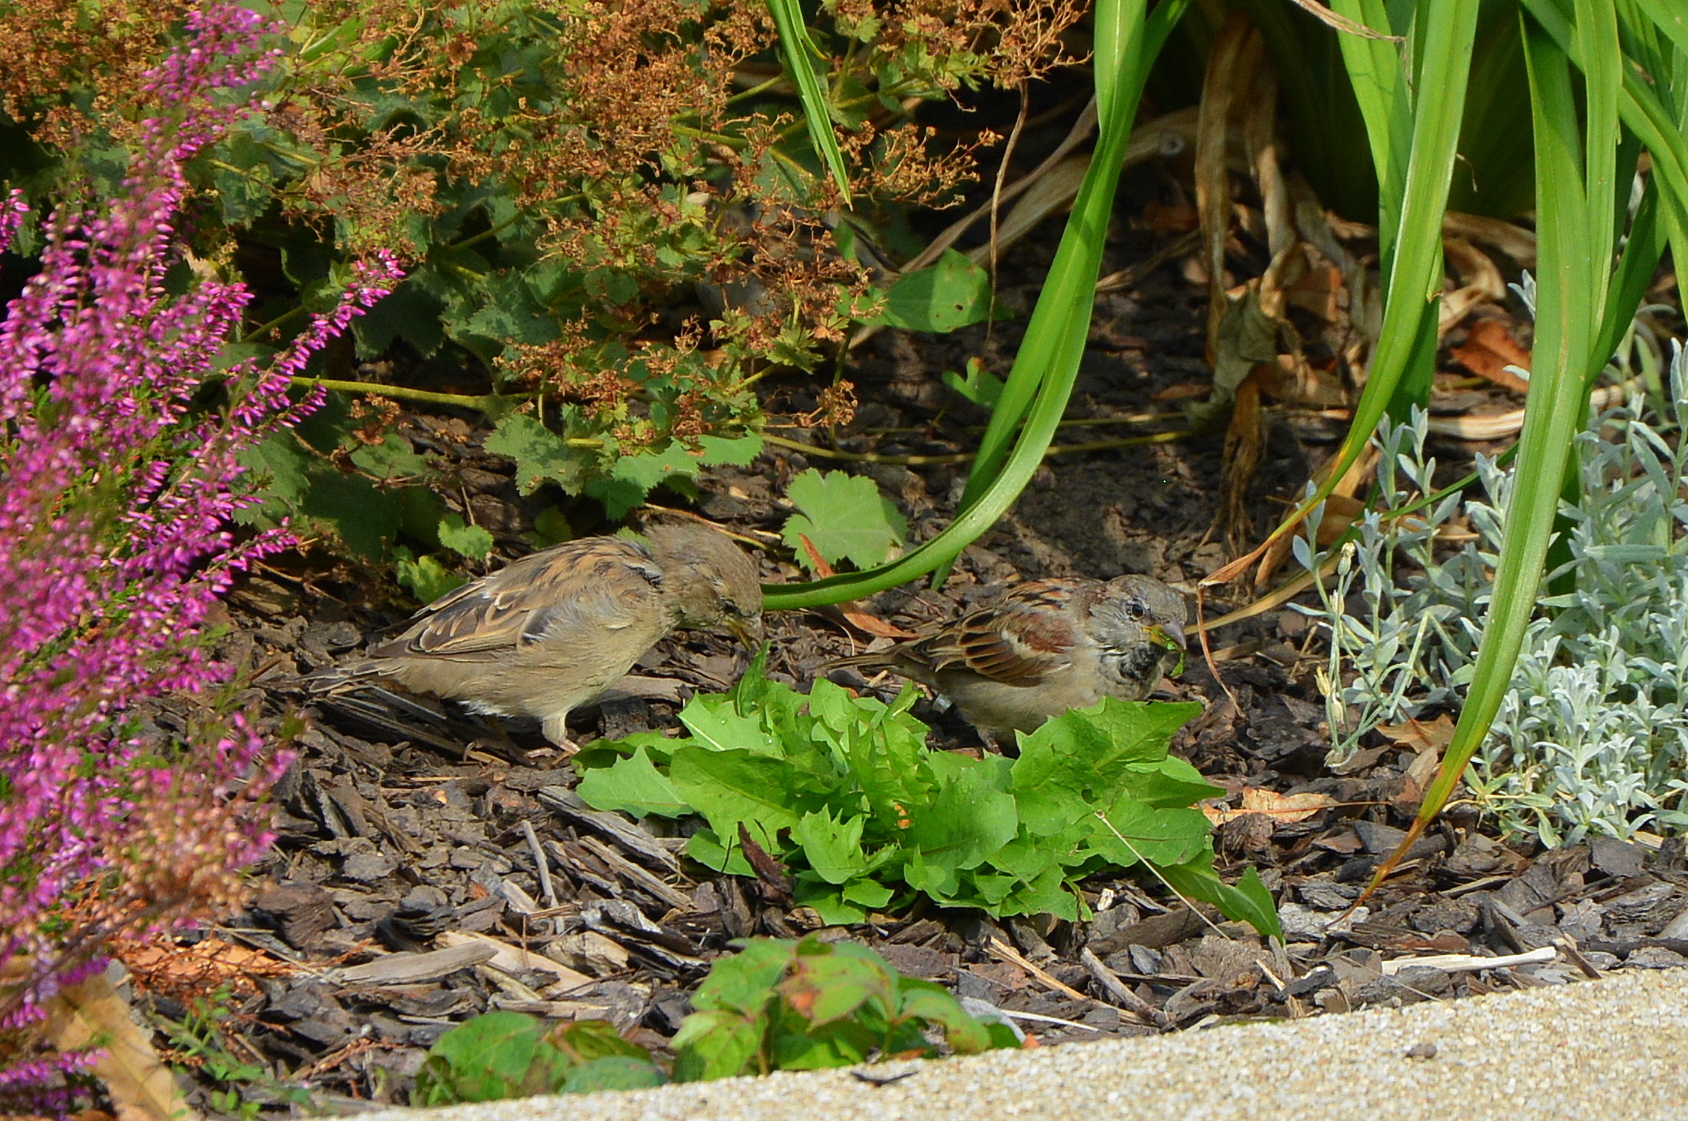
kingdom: Animalia
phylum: Chordata
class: Aves
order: Passeriformes
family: Passeridae
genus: Passer
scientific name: Passer domesticus
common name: House sparrow
